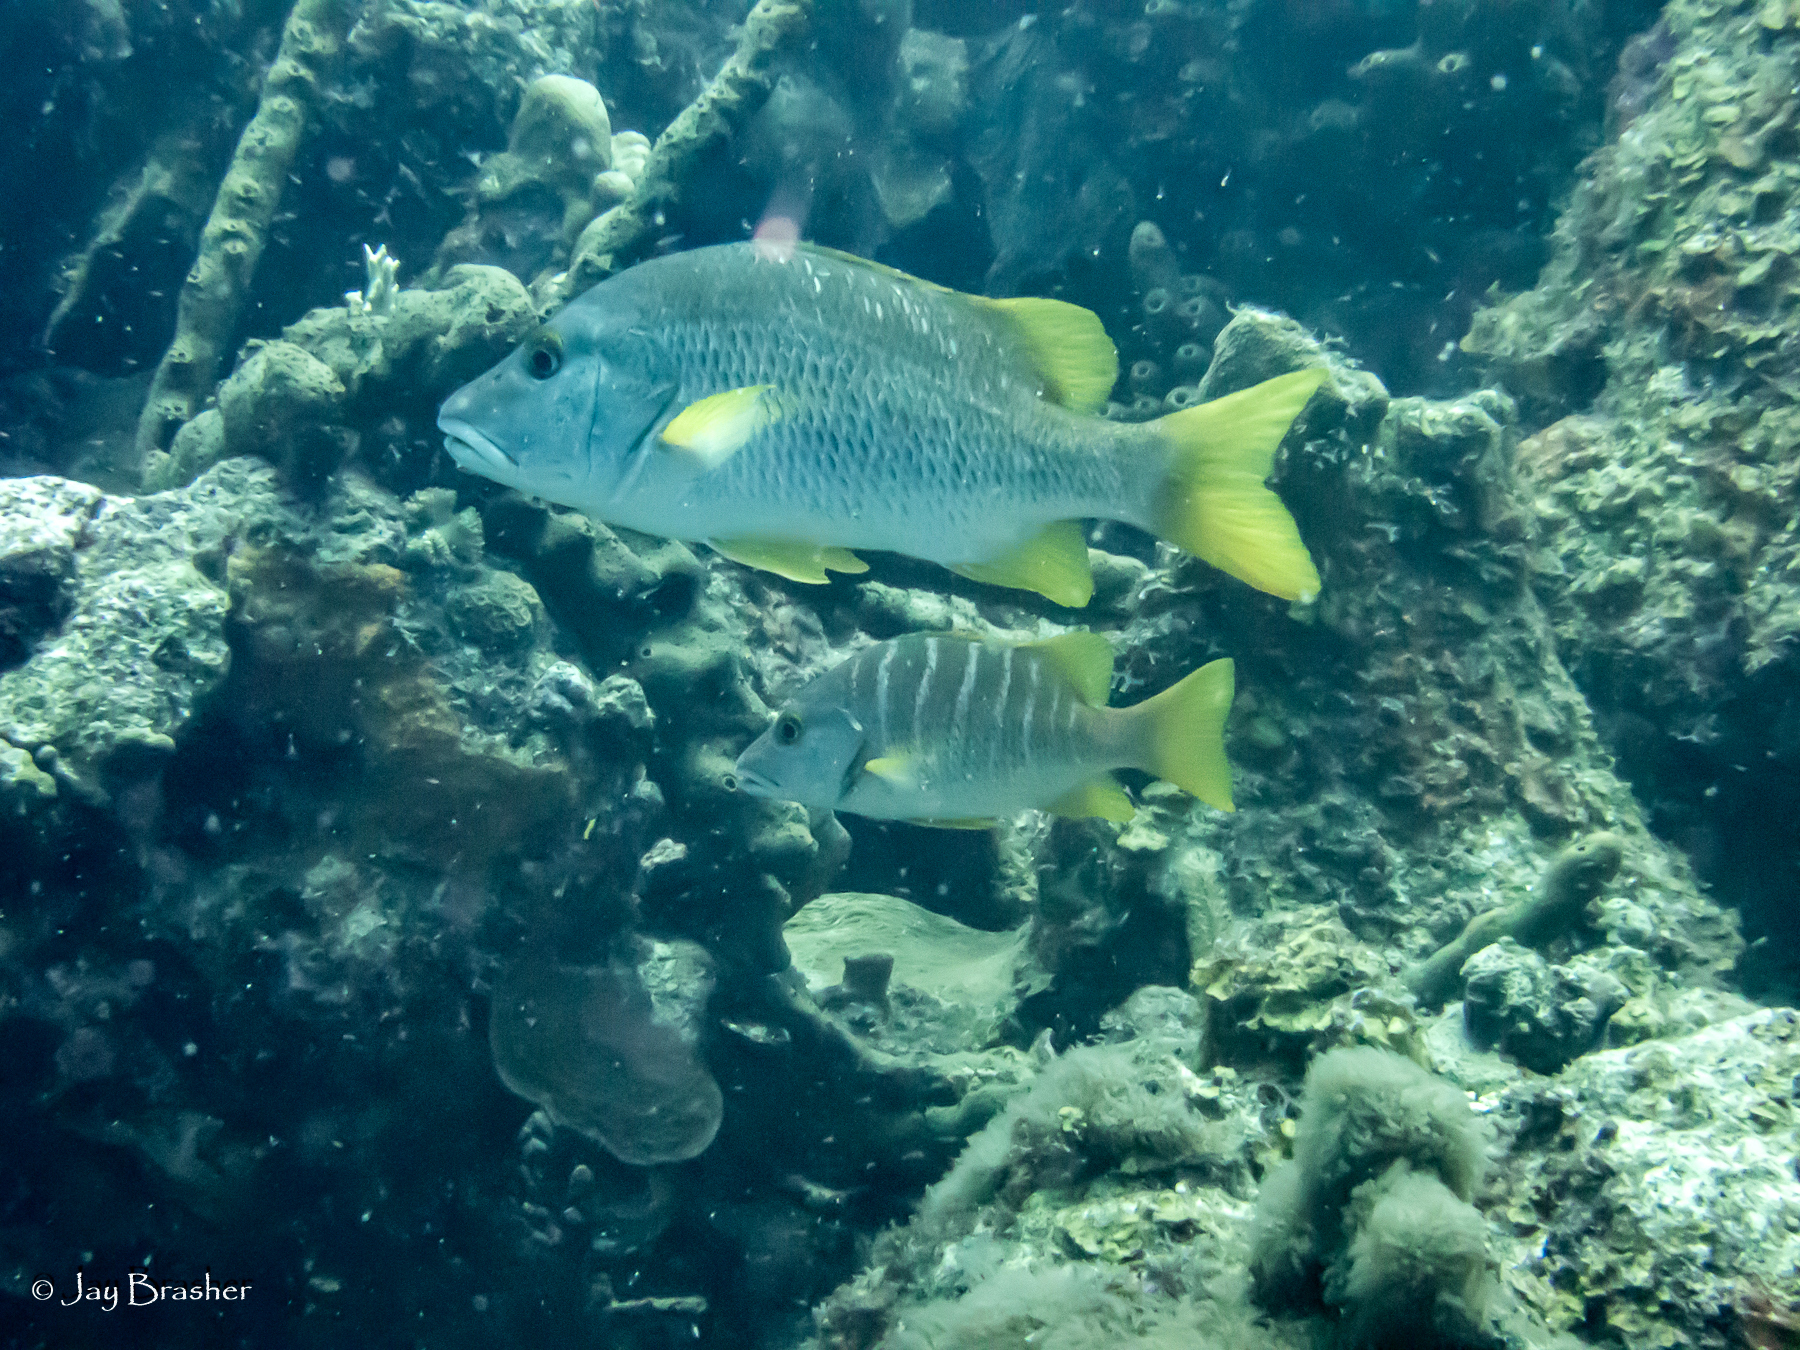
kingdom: Animalia
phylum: Chordata
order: Perciformes
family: Lutjanidae
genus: Lutjanus
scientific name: Lutjanus apodus
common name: Schoolmaster
